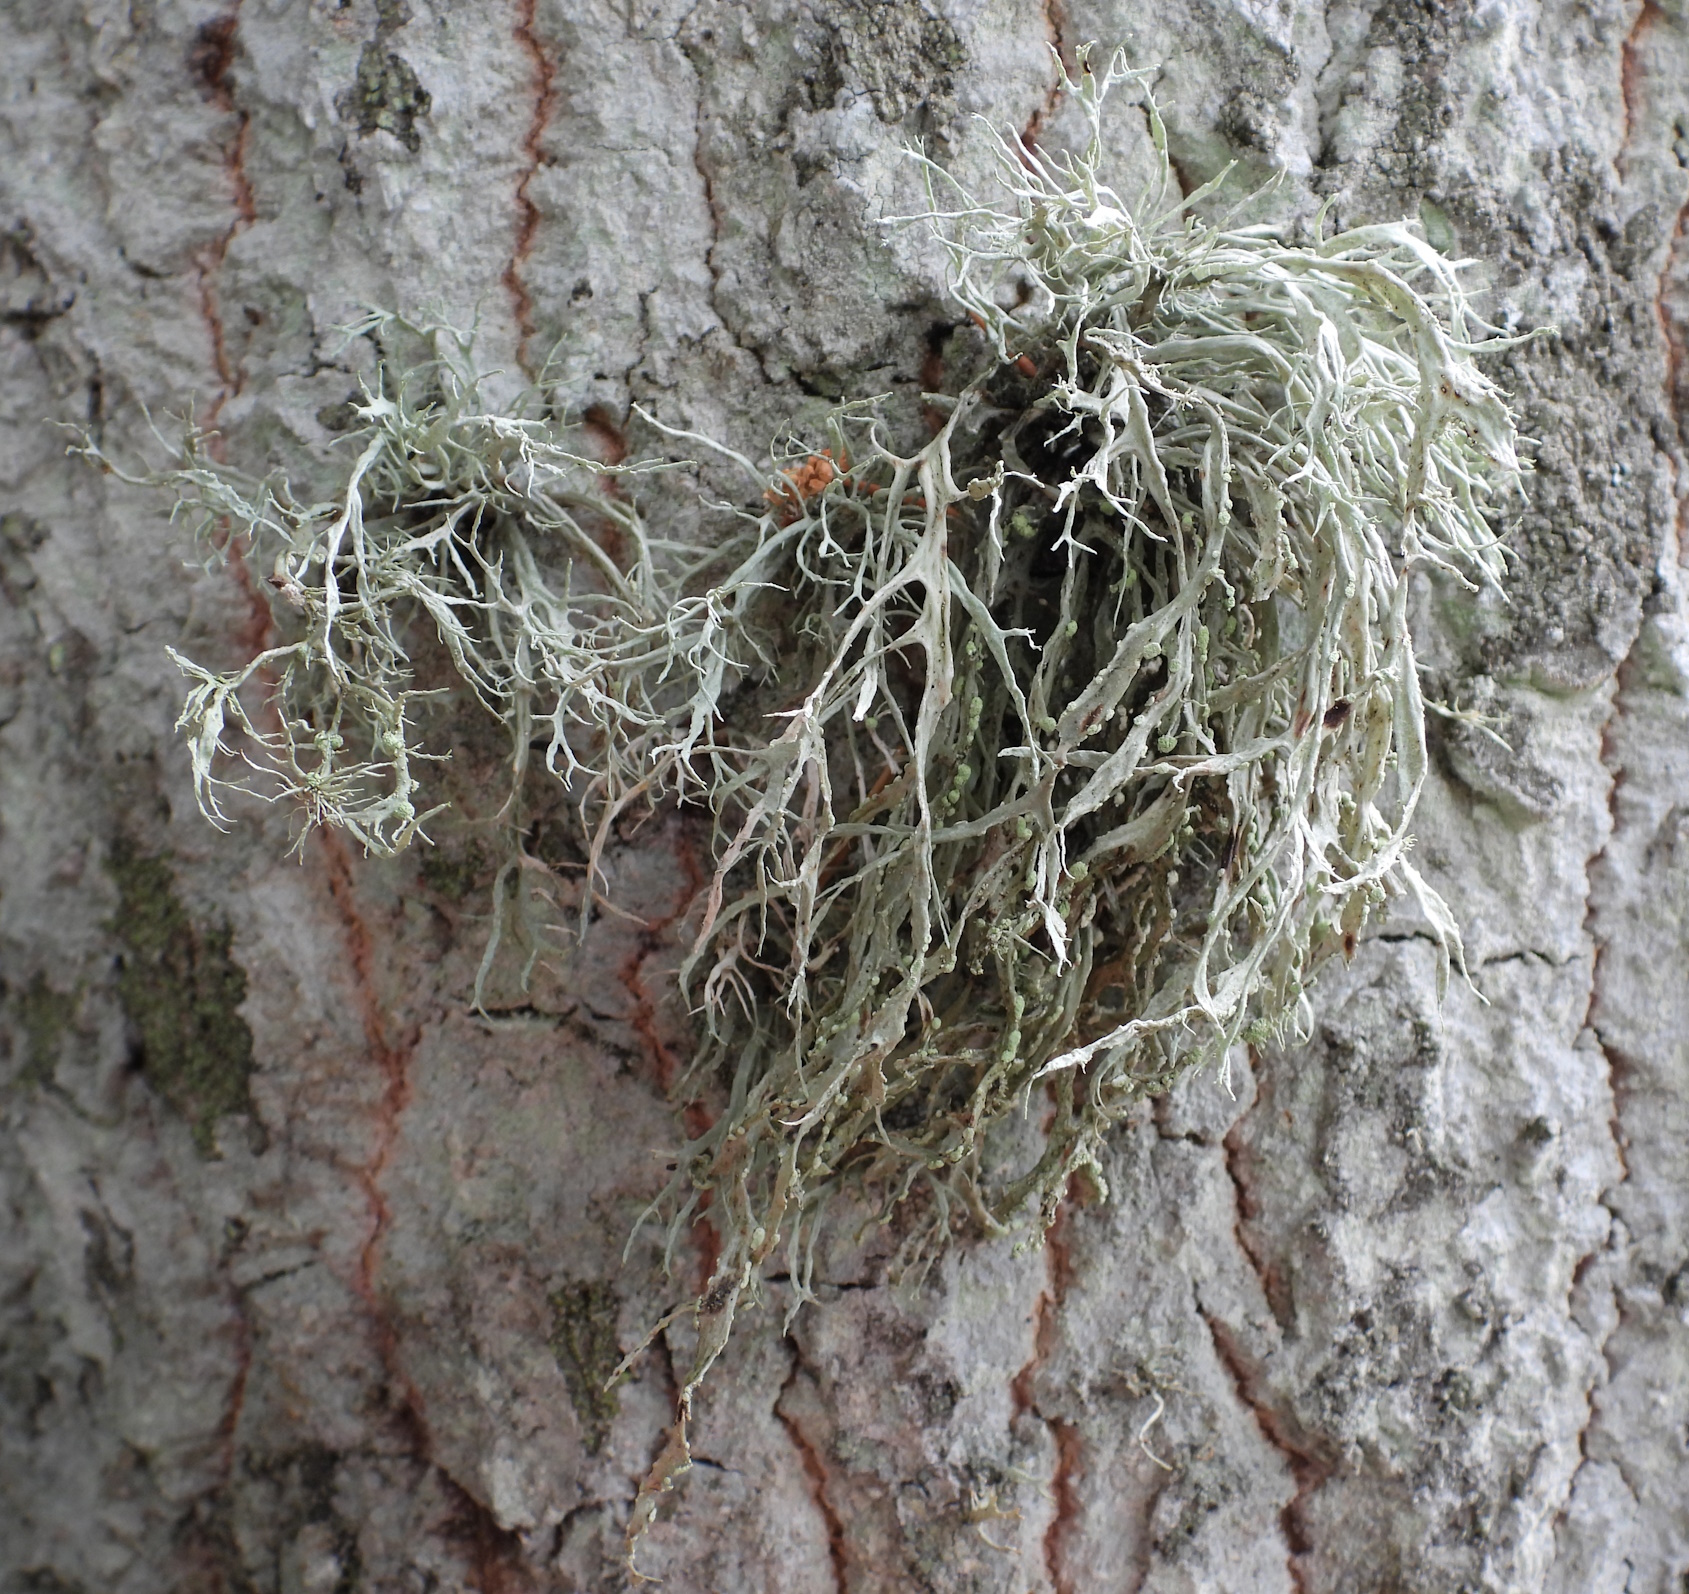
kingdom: Fungi
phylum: Ascomycota
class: Lecanoromycetes
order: Lecanorales
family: Ramalinaceae
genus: Ramalina
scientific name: Ramalina farinacea
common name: Farinose cartilage lichen
